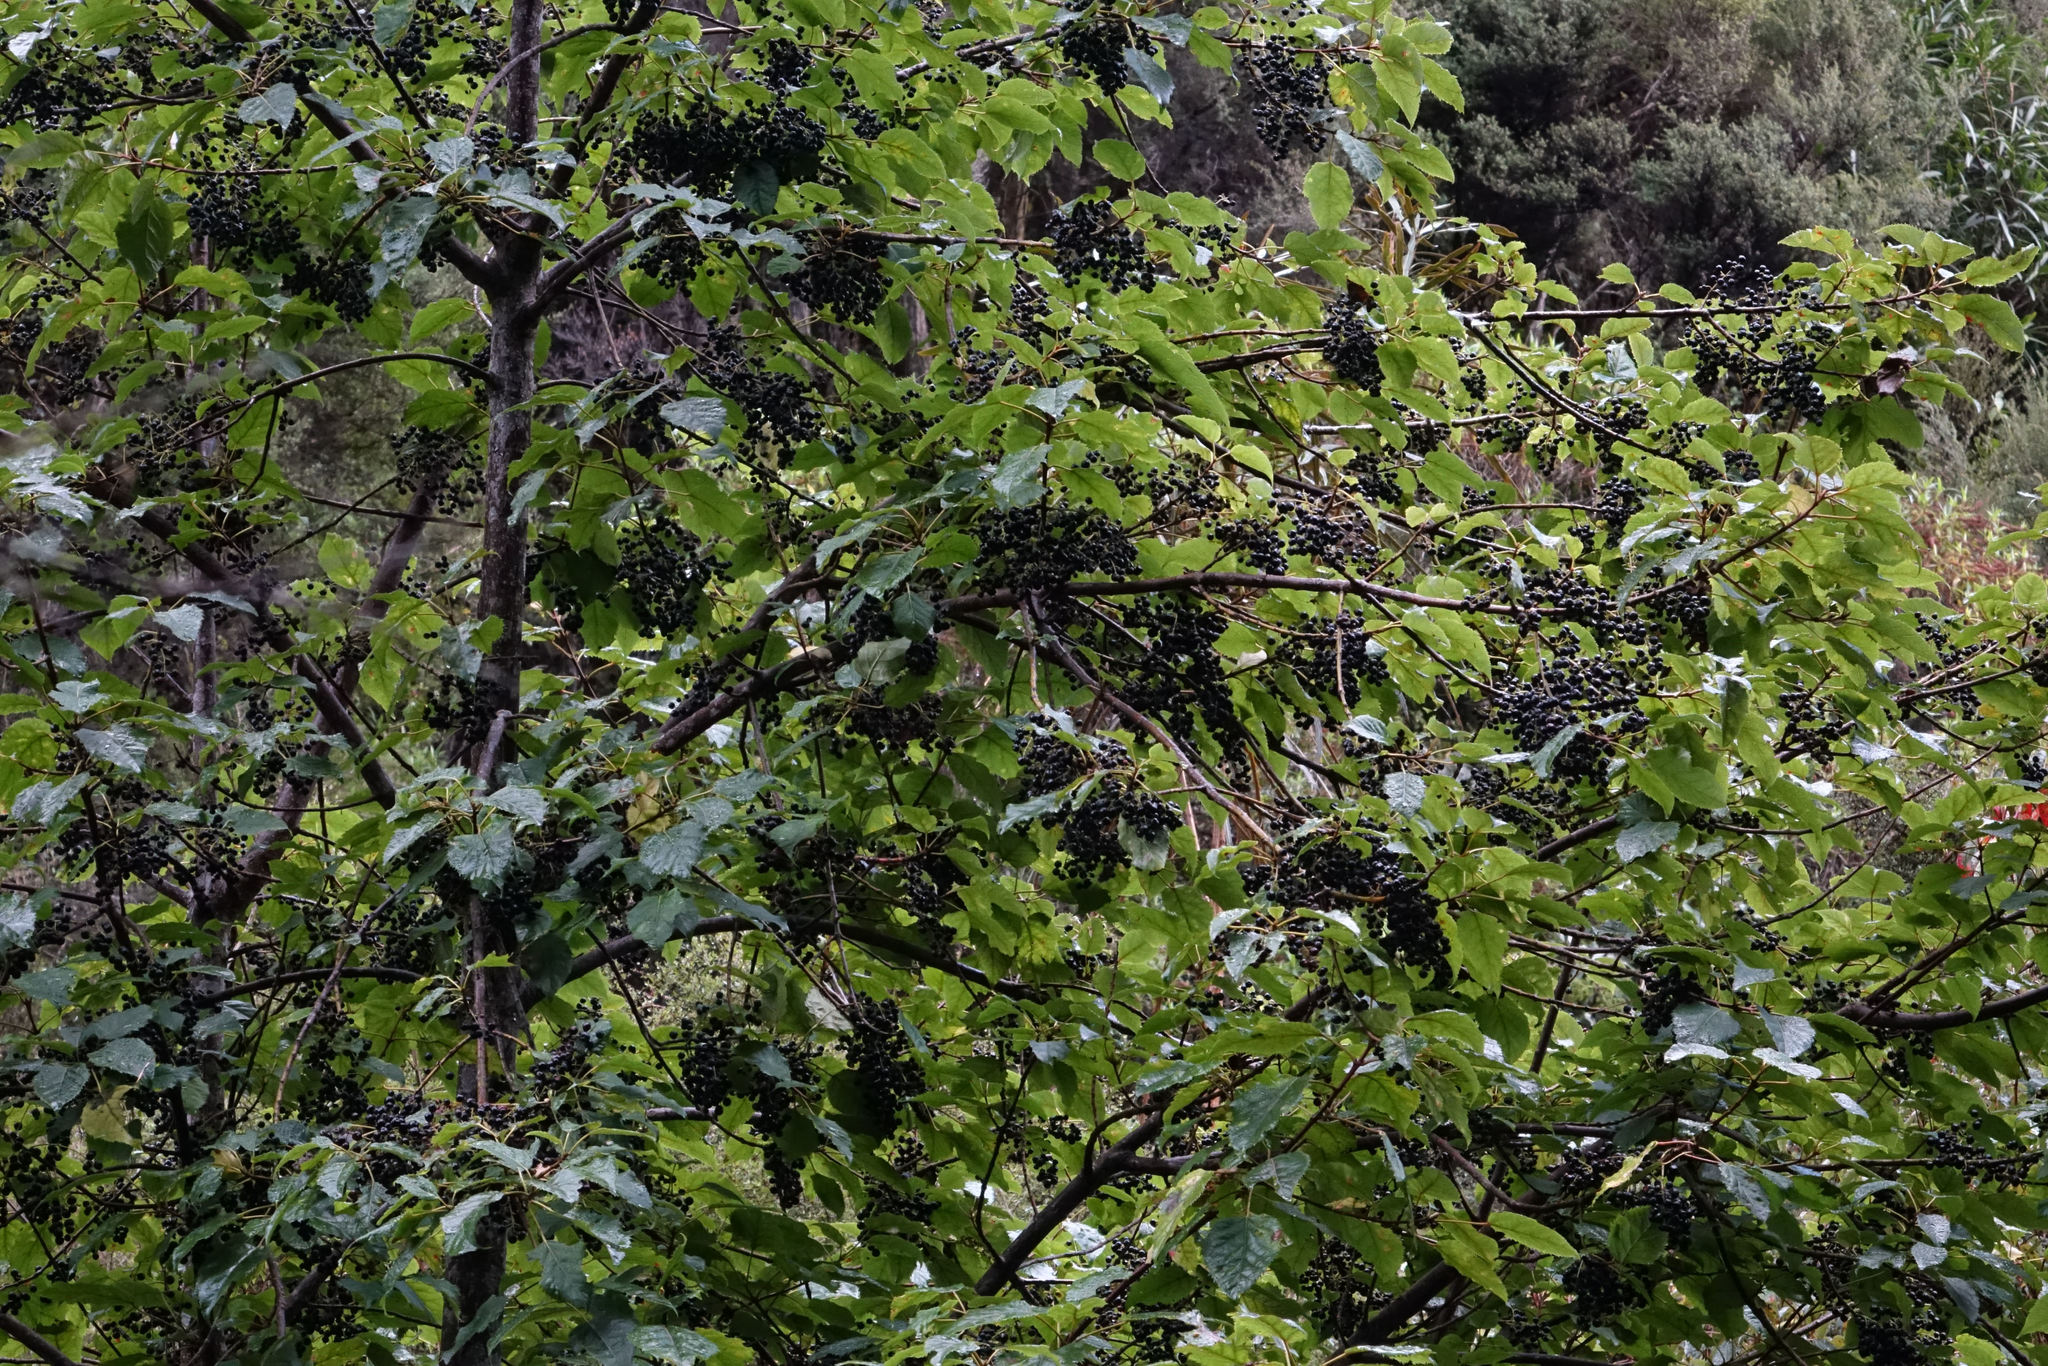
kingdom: Plantae
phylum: Tracheophyta
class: Magnoliopsida
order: Oxalidales
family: Elaeocarpaceae
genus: Aristotelia
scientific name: Aristotelia serrata
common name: New zealand wineberry
